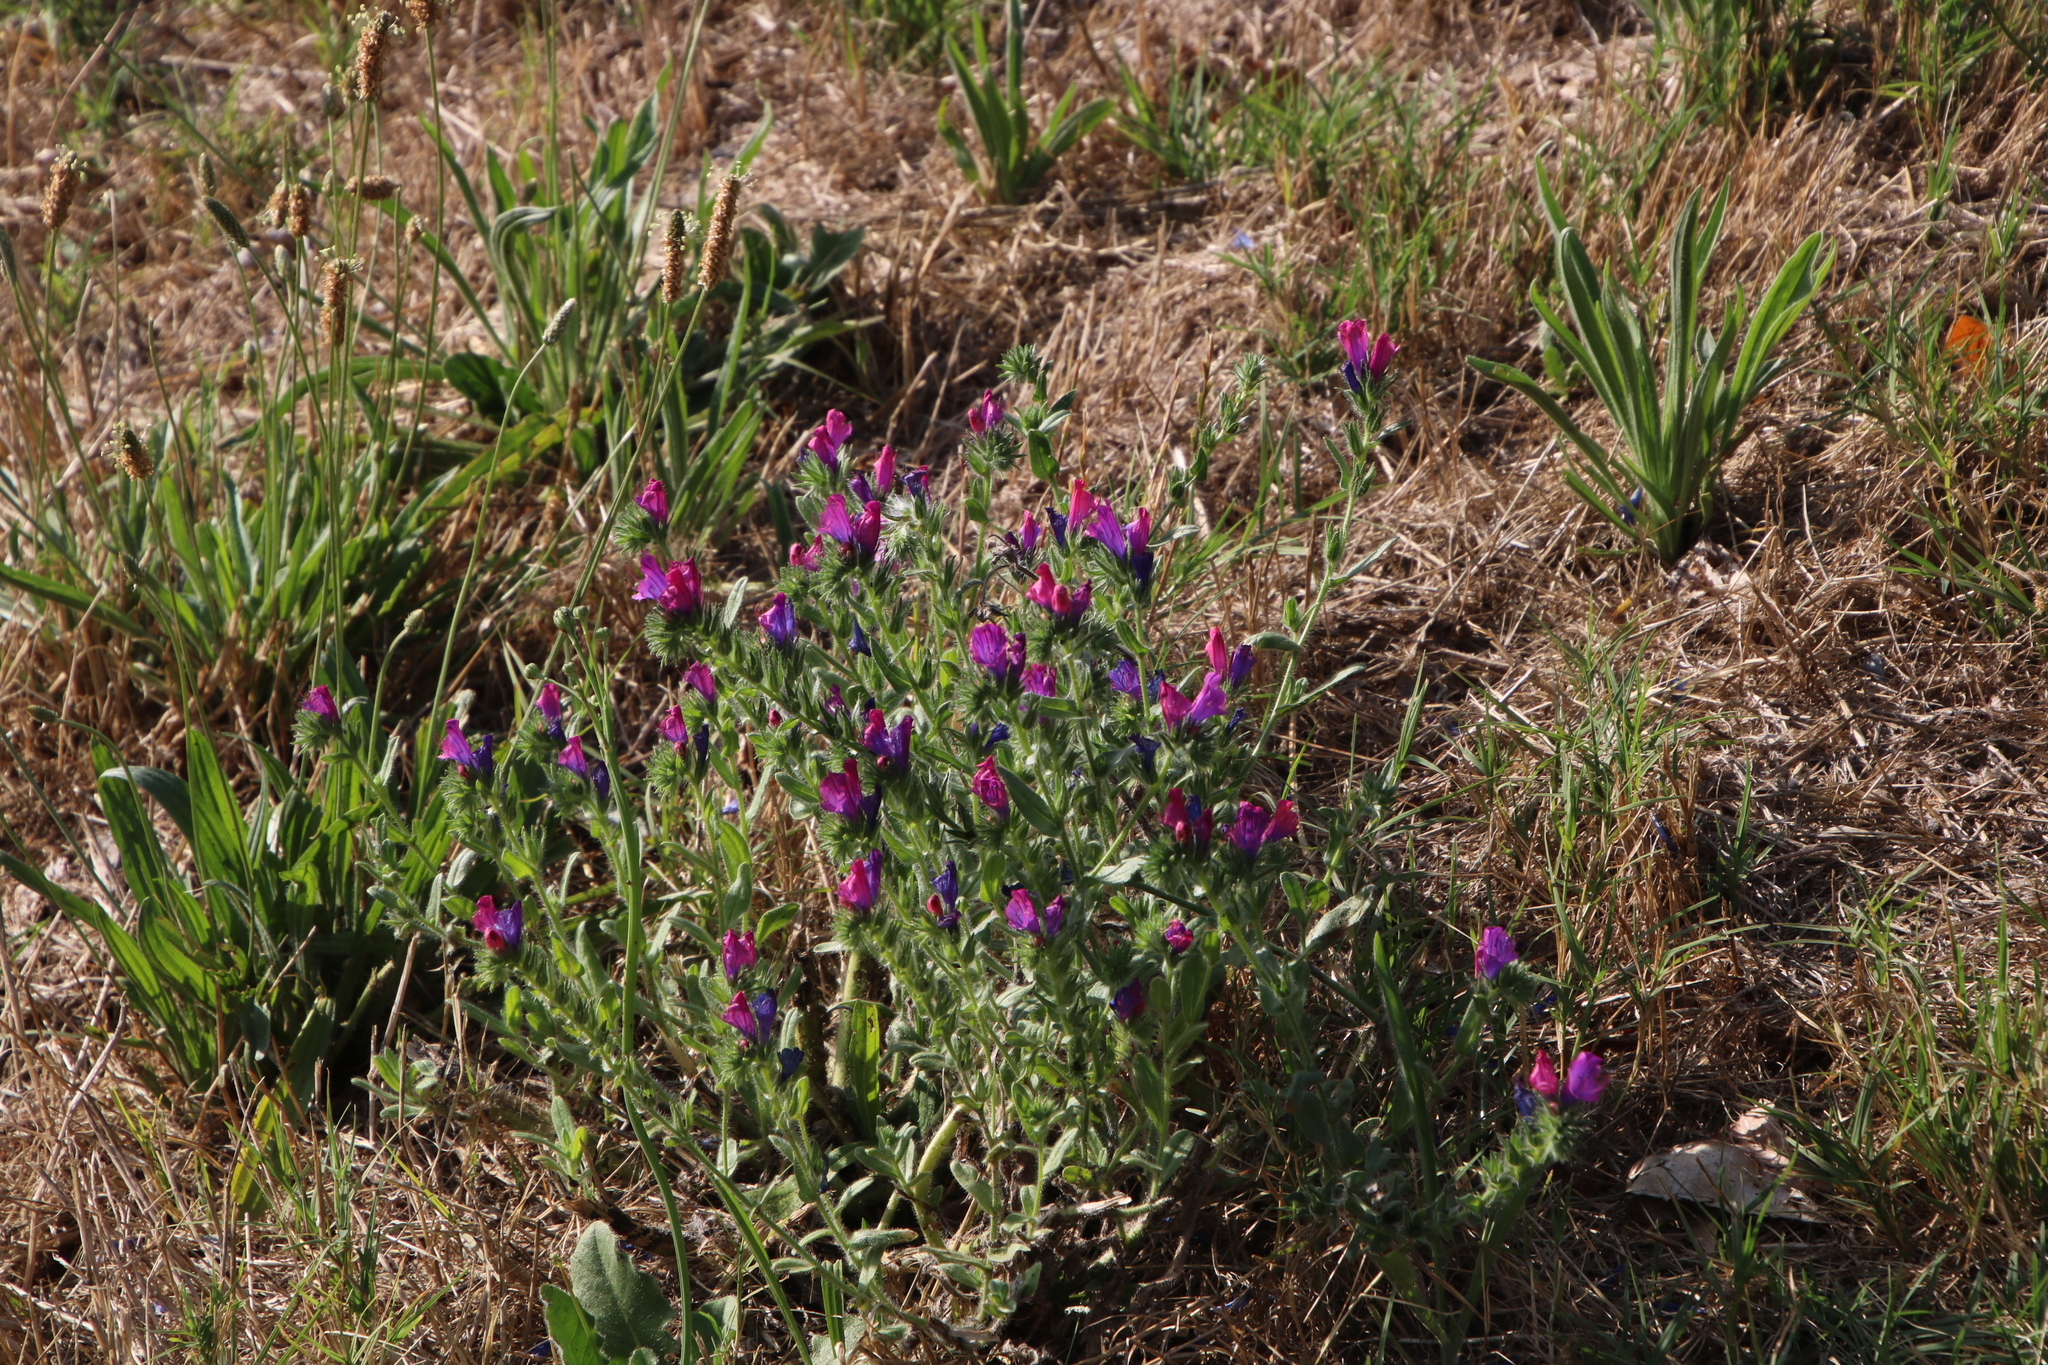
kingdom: Plantae
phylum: Tracheophyta
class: Magnoliopsida
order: Boraginales
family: Boraginaceae
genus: Echium
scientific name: Echium plantagineum
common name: Purple viper's-bugloss
